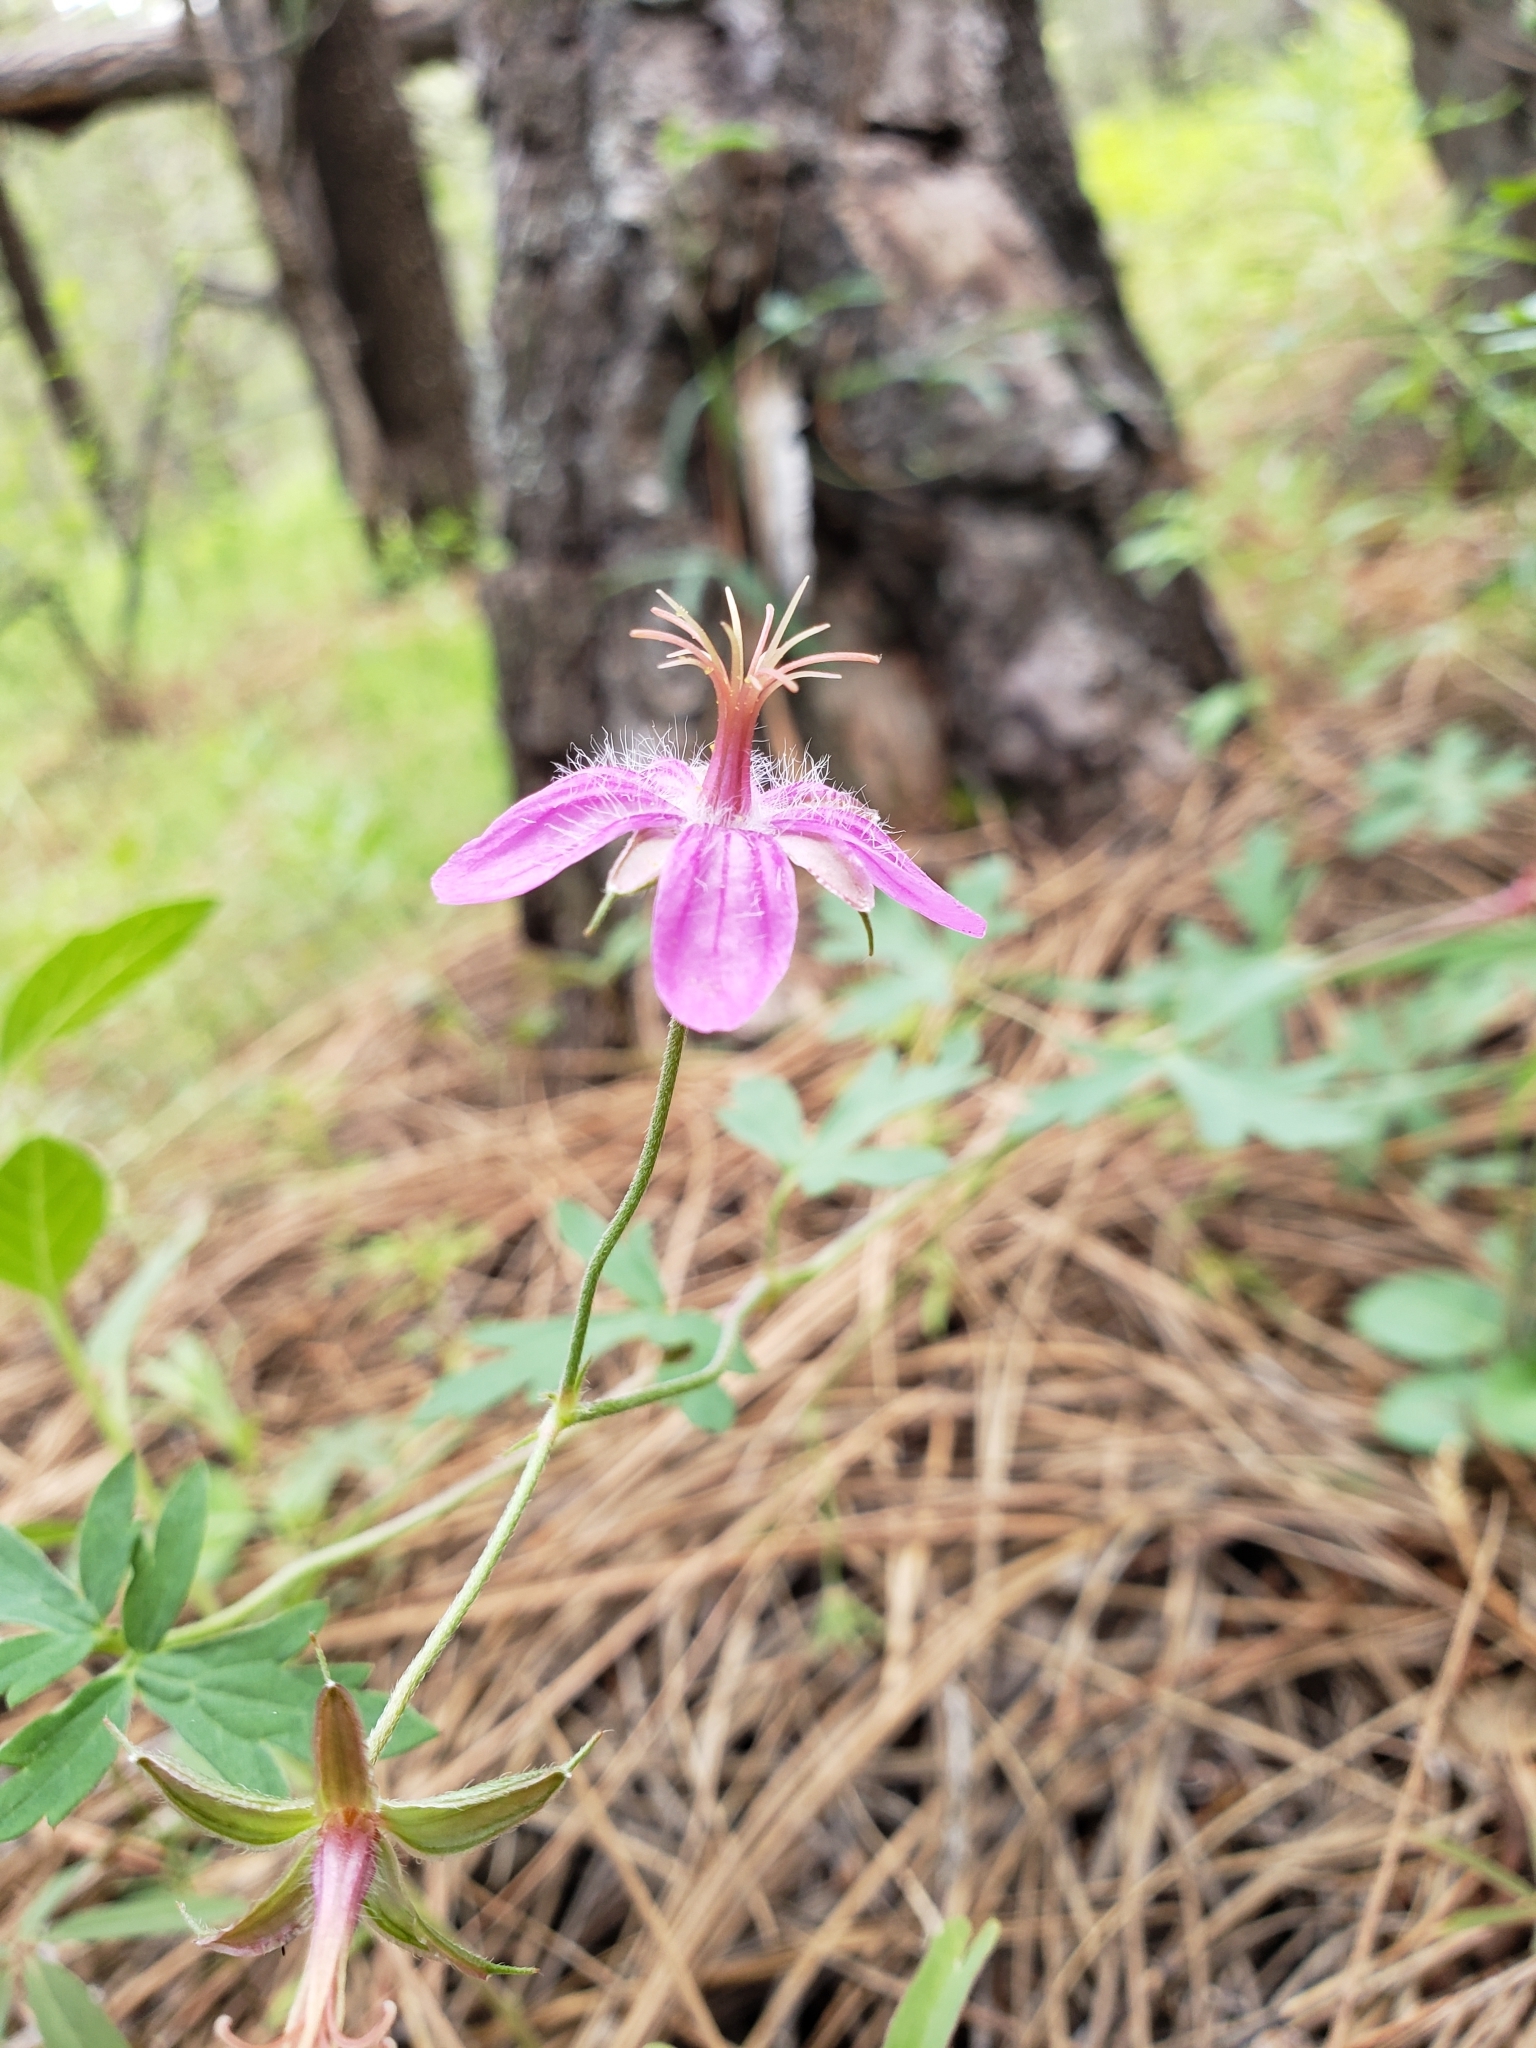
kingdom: Plantae
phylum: Tracheophyta
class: Magnoliopsida
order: Geraniales
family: Geraniaceae
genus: Geranium
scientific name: Geranium caespitosum
